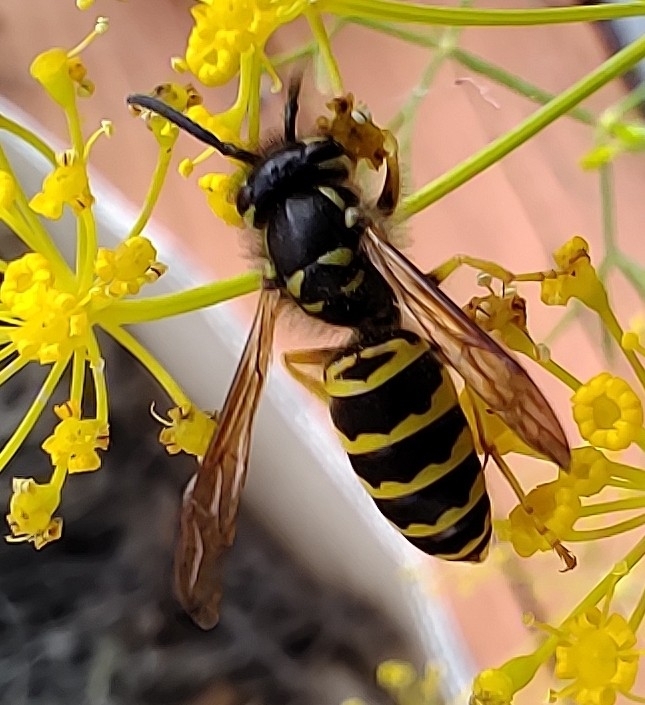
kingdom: Animalia
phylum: Arthropoda
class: Insecta
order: Hymenoptera
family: Vespidae
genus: Vespula
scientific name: Vespula maculifrons
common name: Eastern yellowjacket
